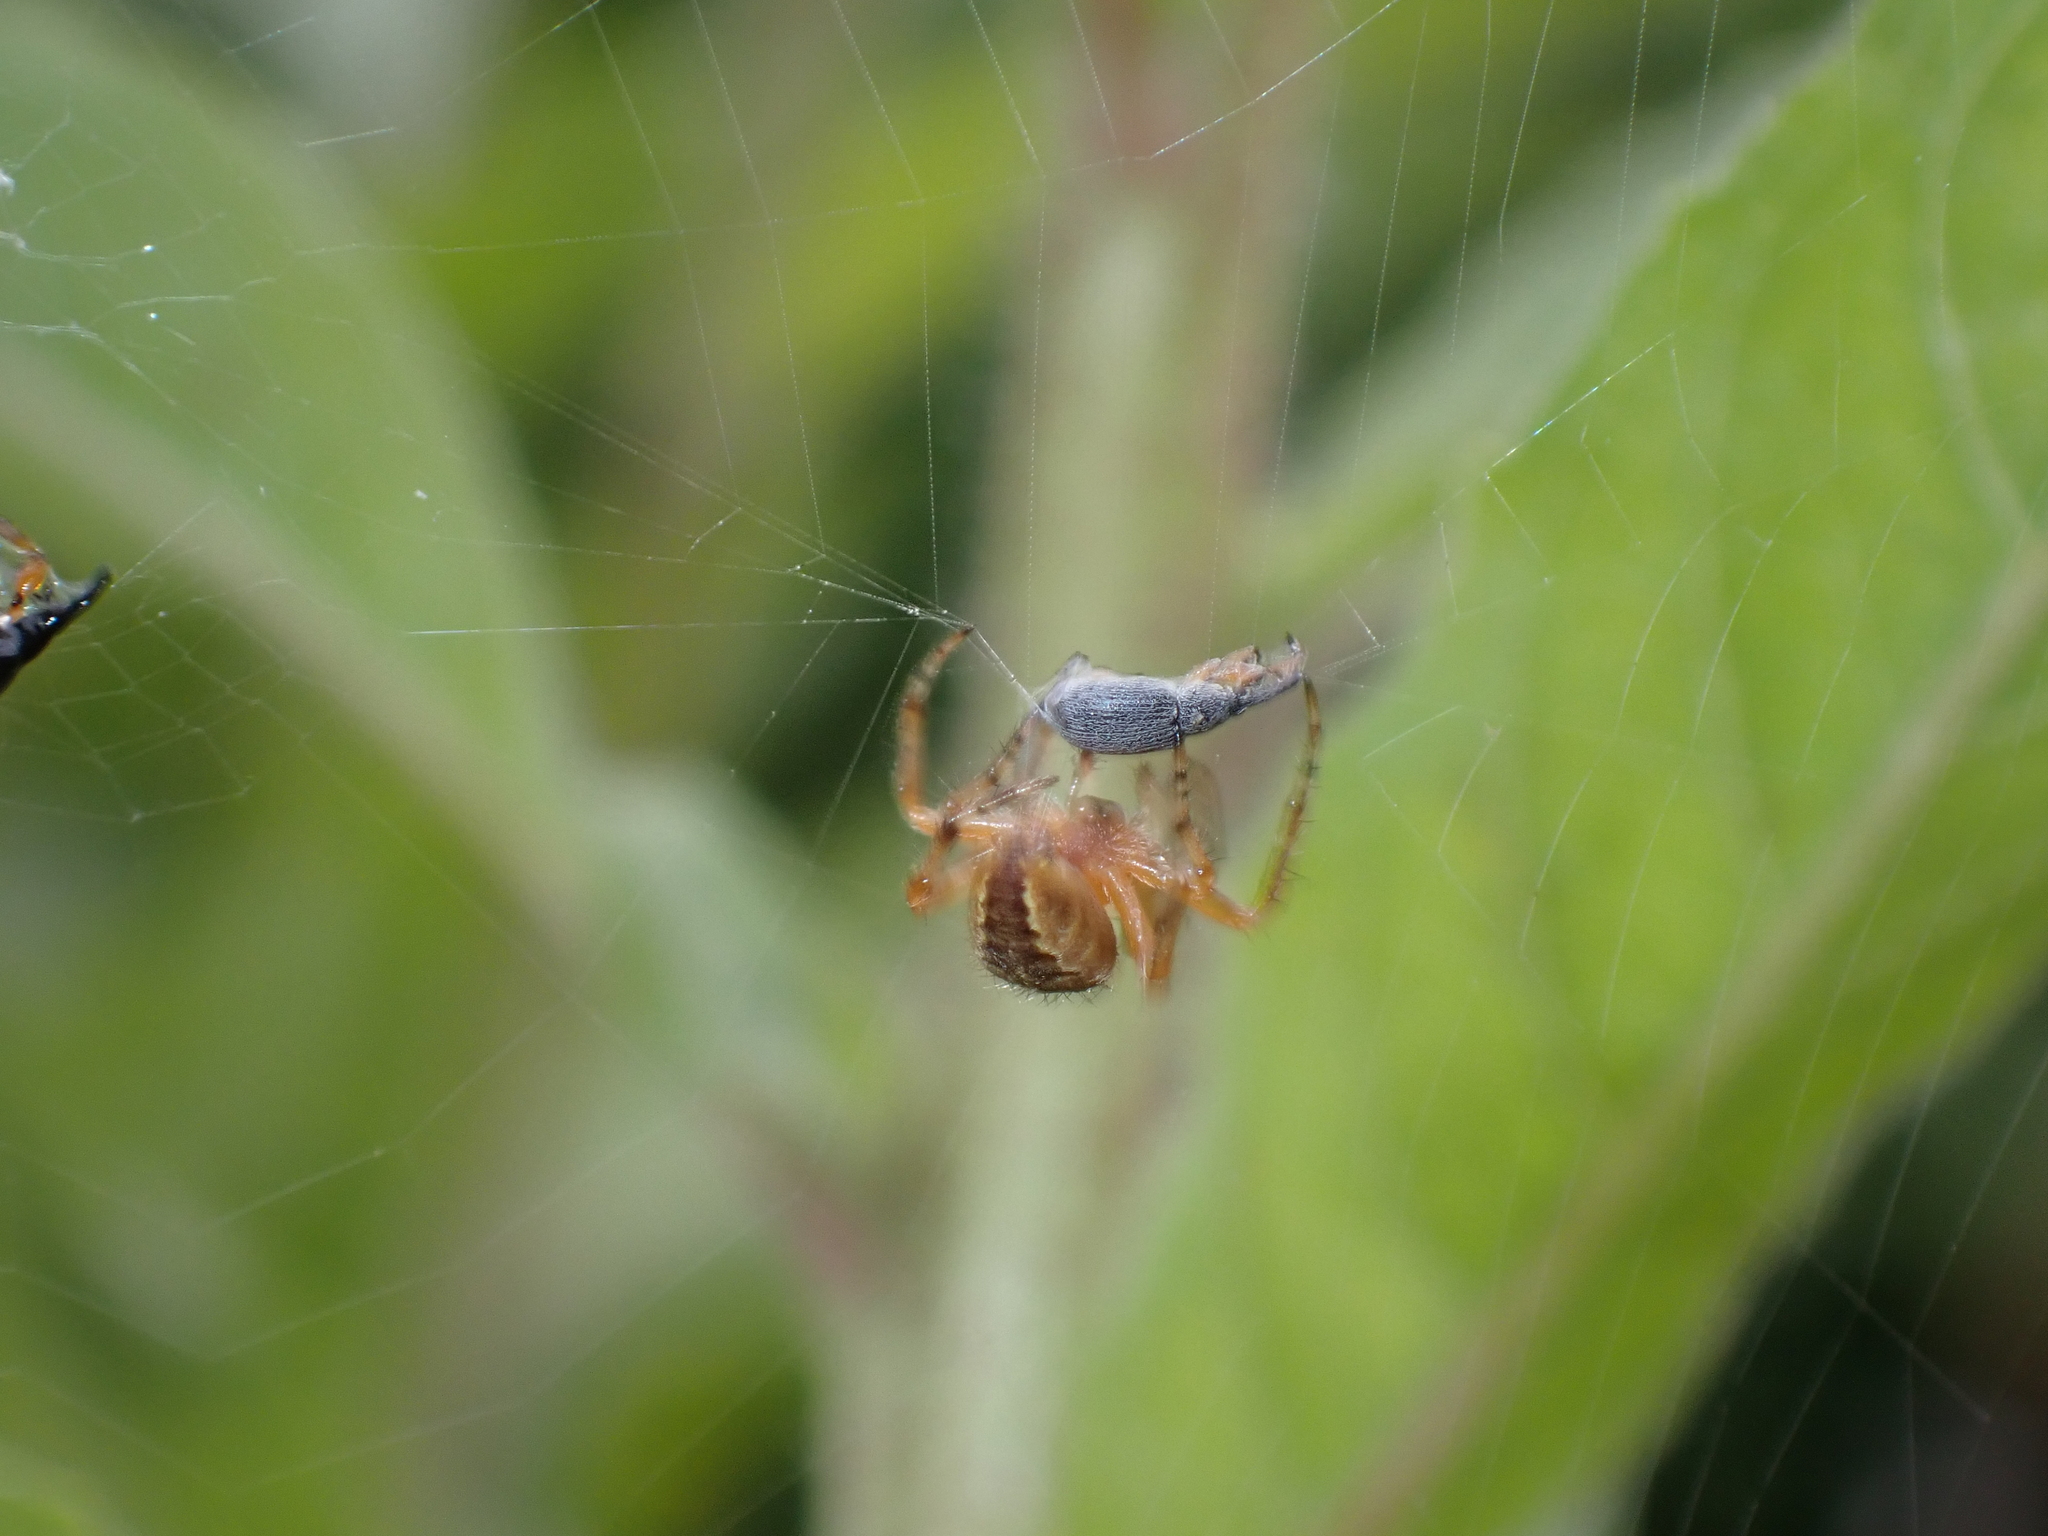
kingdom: Animalia
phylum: Arthropoda
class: Arachnida
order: Araneae
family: Araneidae
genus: Araneus
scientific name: Araneus diadematus
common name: Cross orbweaver
